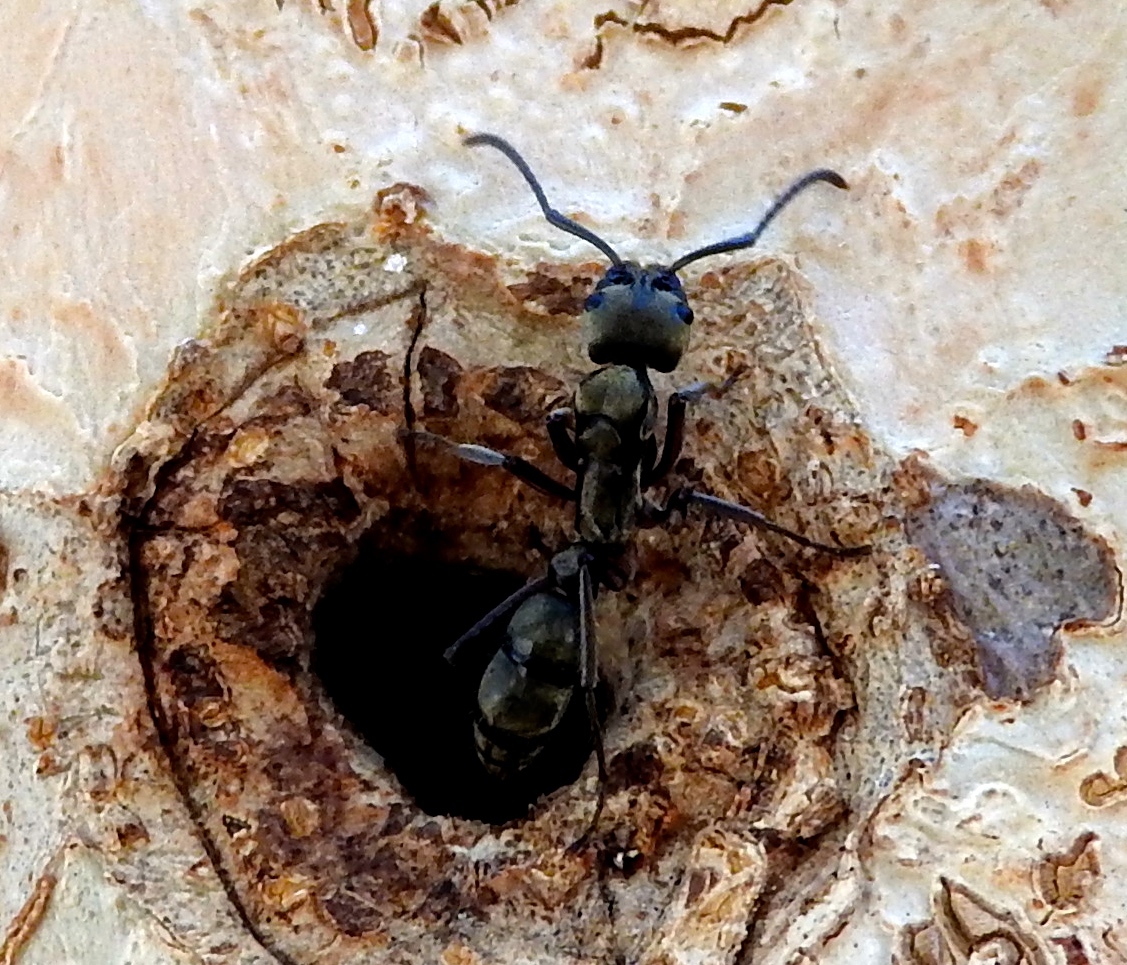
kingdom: Animalia
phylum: Arthropoda
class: Insecta
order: Hymenoptera
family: Formicidae
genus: Pachycondyla
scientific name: Pachycondyla villosa
